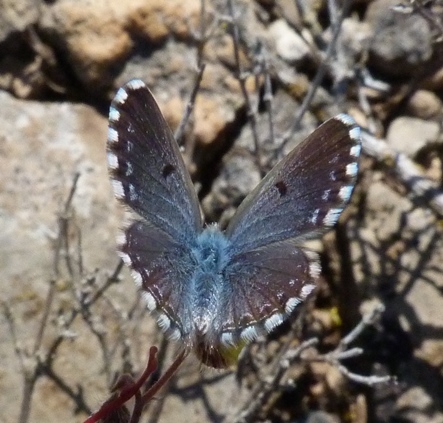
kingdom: Animalia
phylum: Arthropoda
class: Insecta
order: Lepidoptera
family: Lycaenidae
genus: Pseudophilotes
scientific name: Pseudophilotes baton
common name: Baton blue
